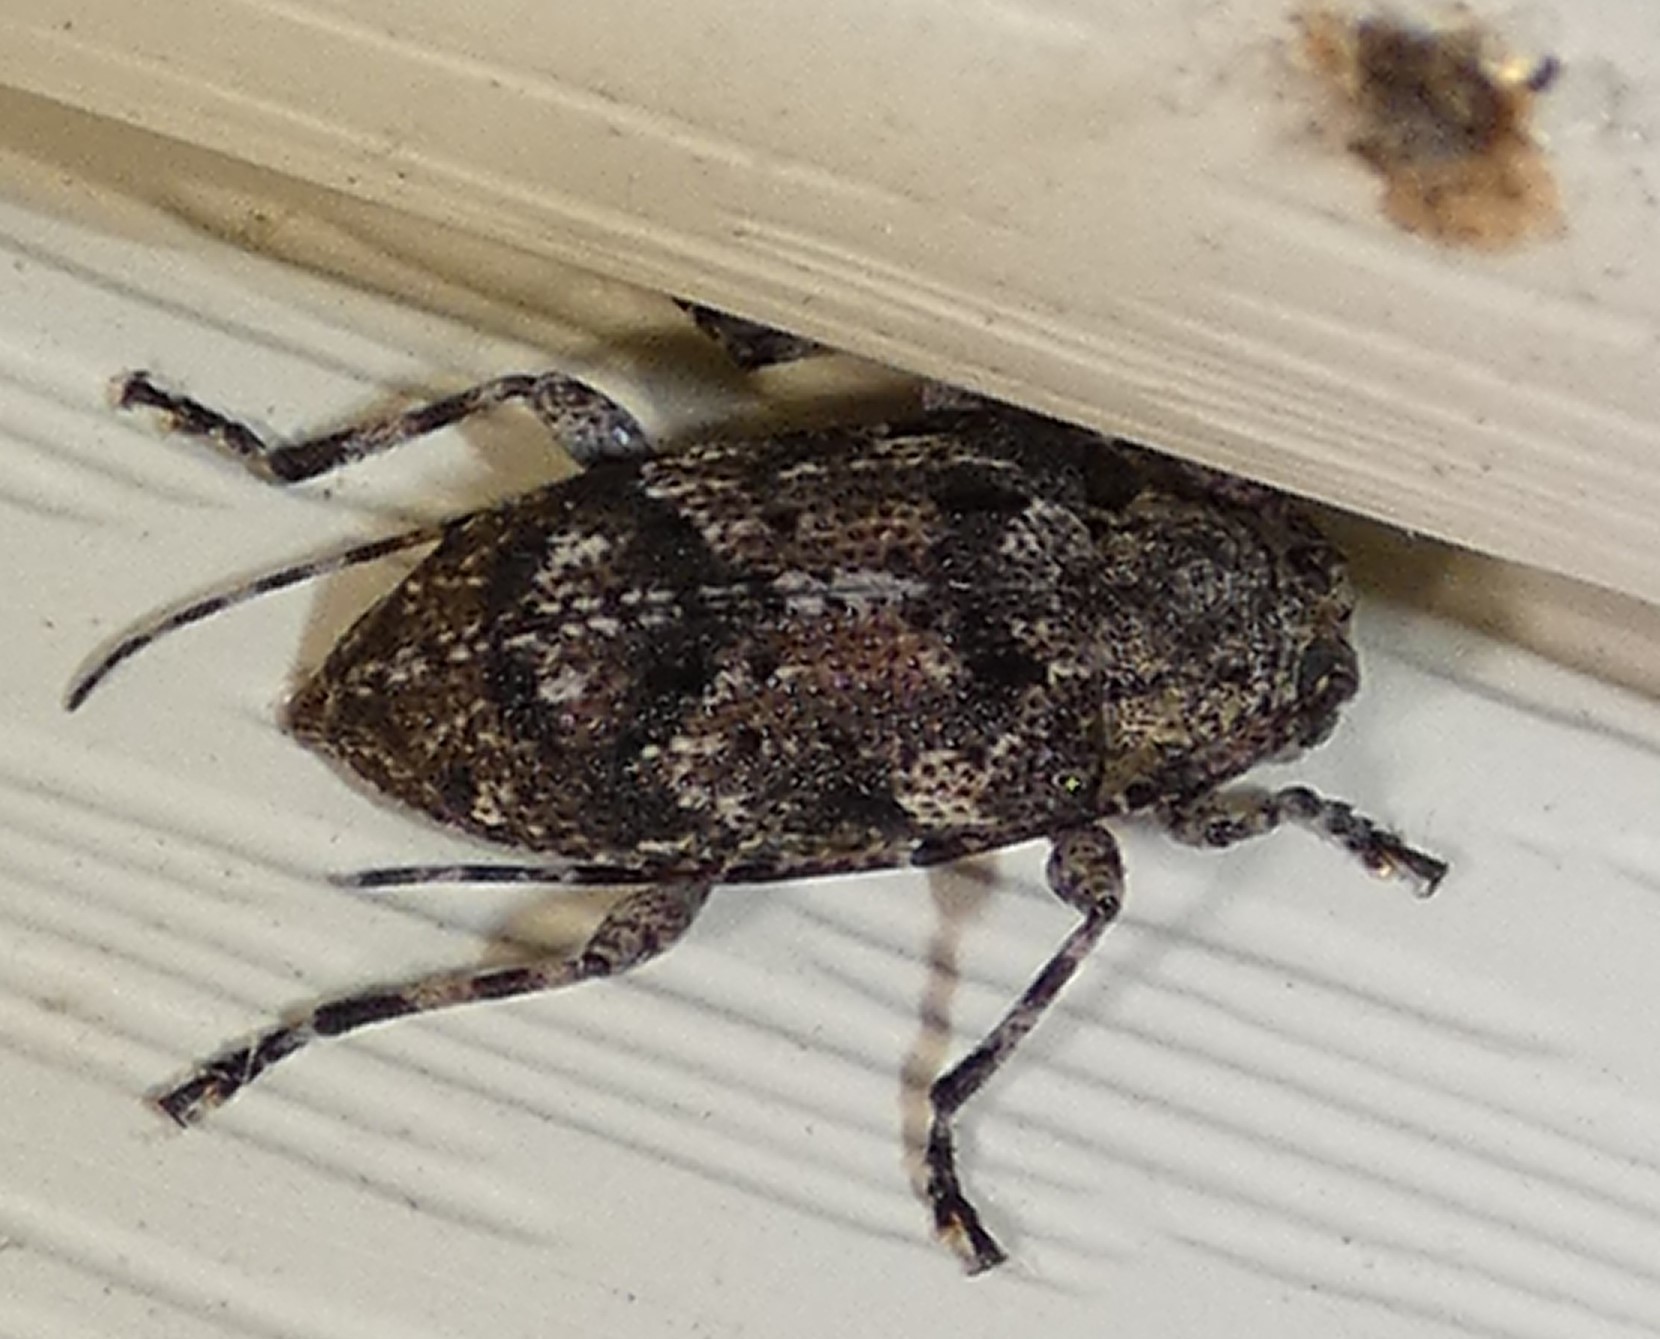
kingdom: Animalia
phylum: Arthropoda
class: Insecta
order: Coleoptera
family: Cerambycidae
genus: Astylopsis
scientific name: Astylopsis sexguttata
